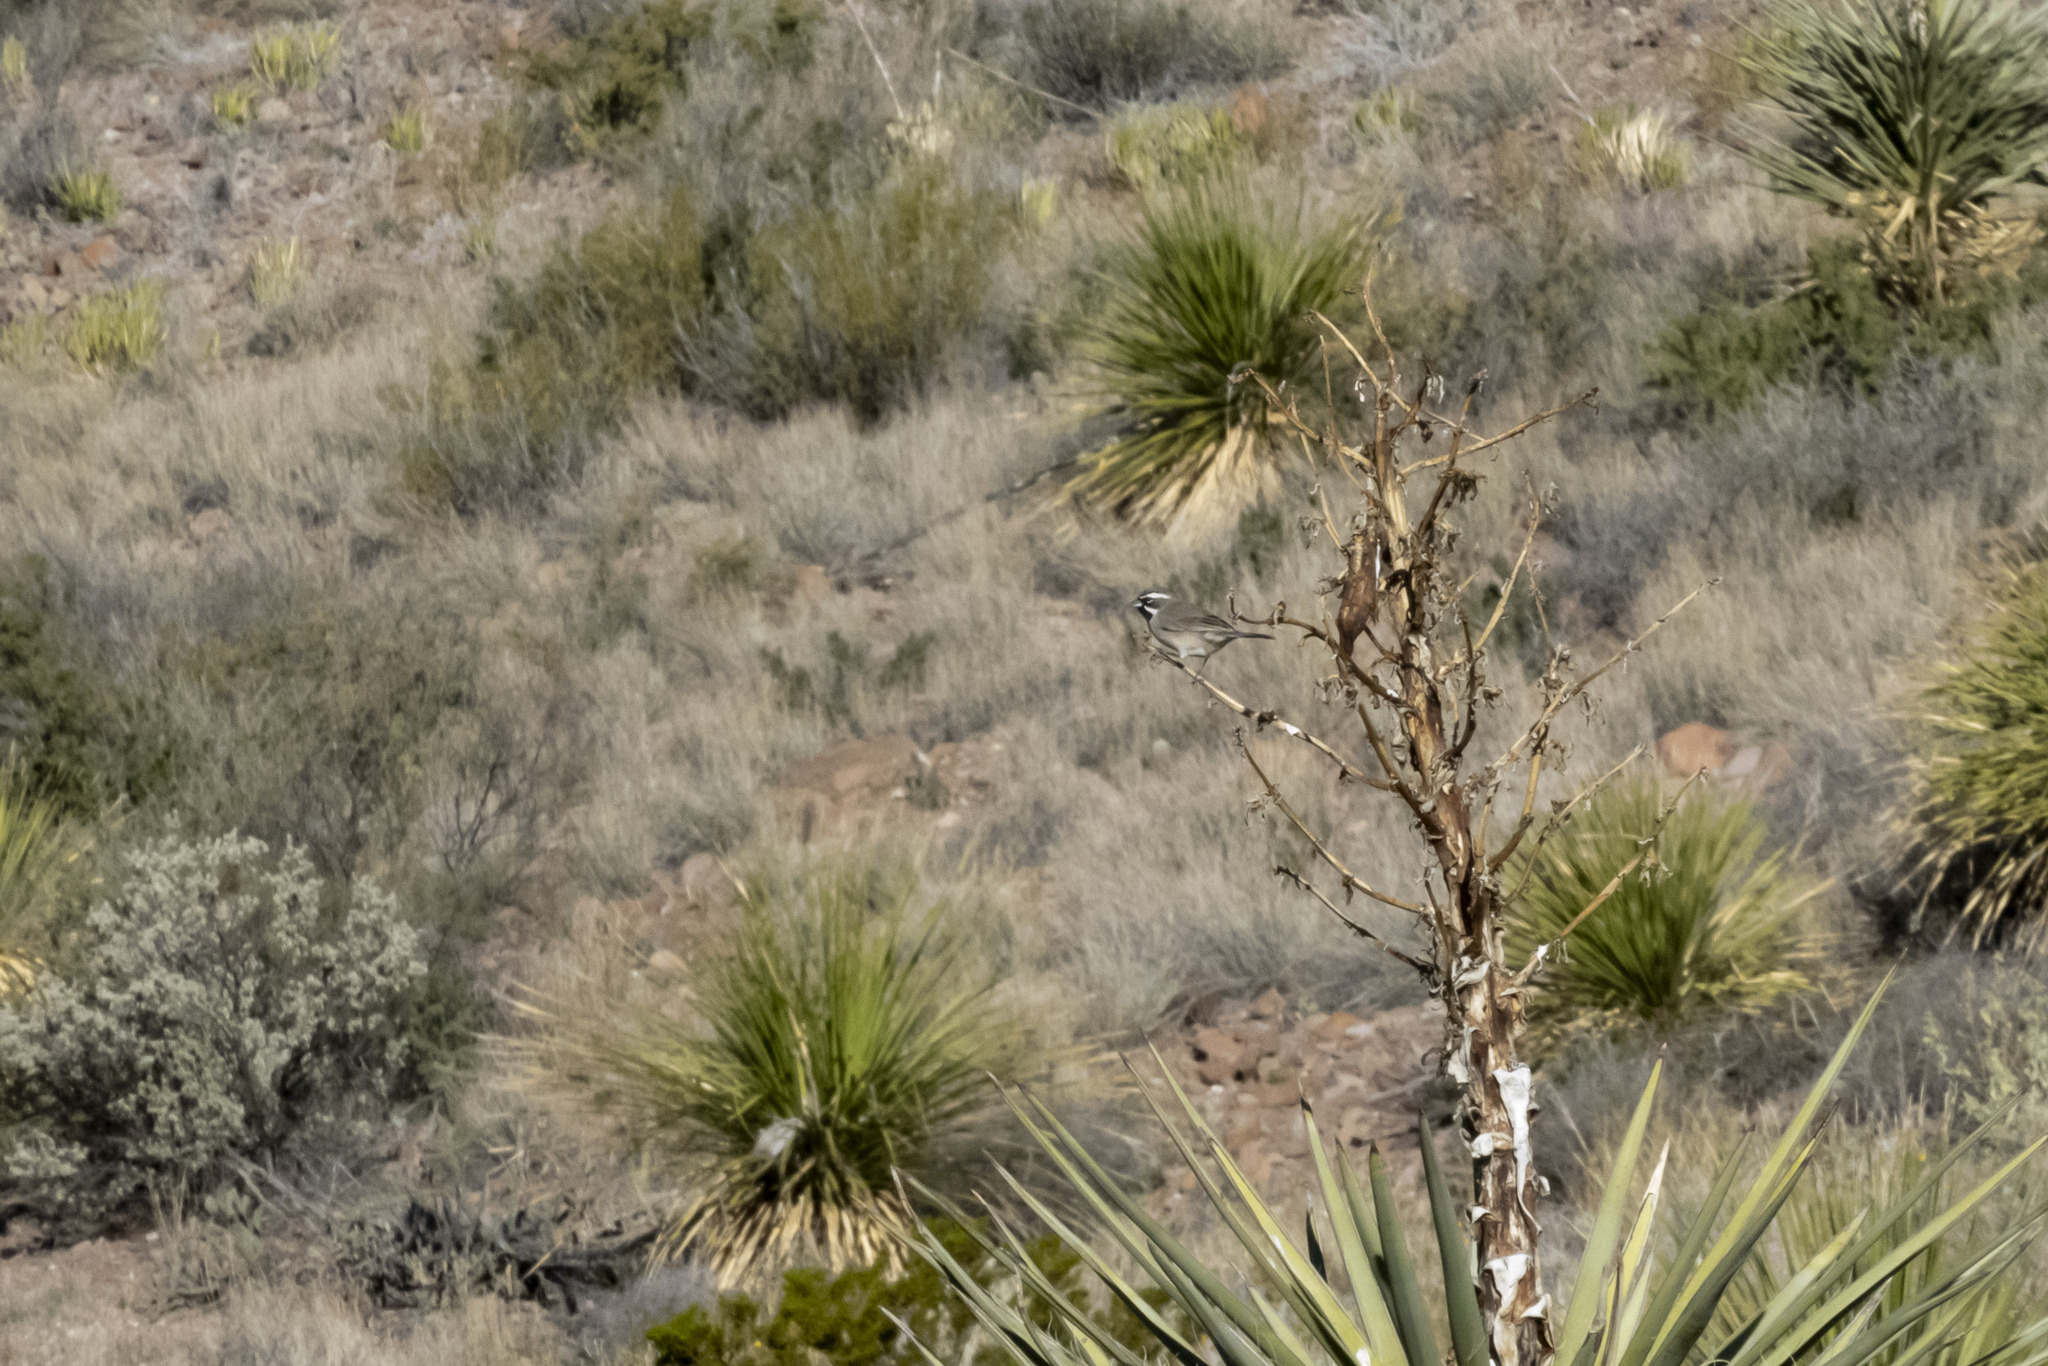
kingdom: Animalia
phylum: Chordata
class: Aves
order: Passeriformes
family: Passerellidae
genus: Amphispiza
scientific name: Amphispiza bilineata
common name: Black-throated sparrow
